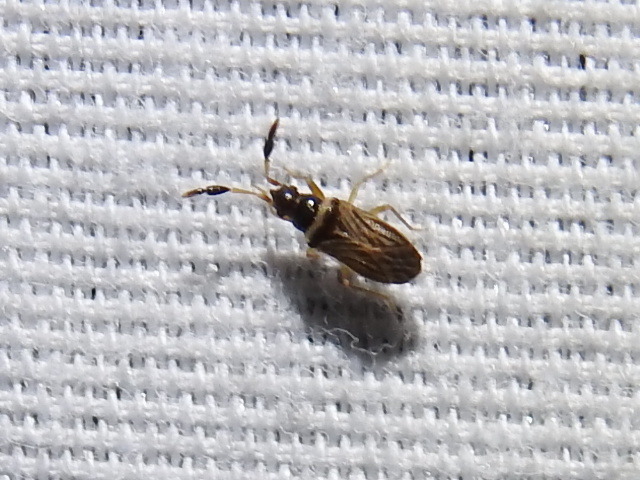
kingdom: Animalia
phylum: Arthropoda
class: Insecta
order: Hemiptera
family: Rhyparochromidae
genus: Ptochiomera
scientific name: Ptochiomera nodosa
